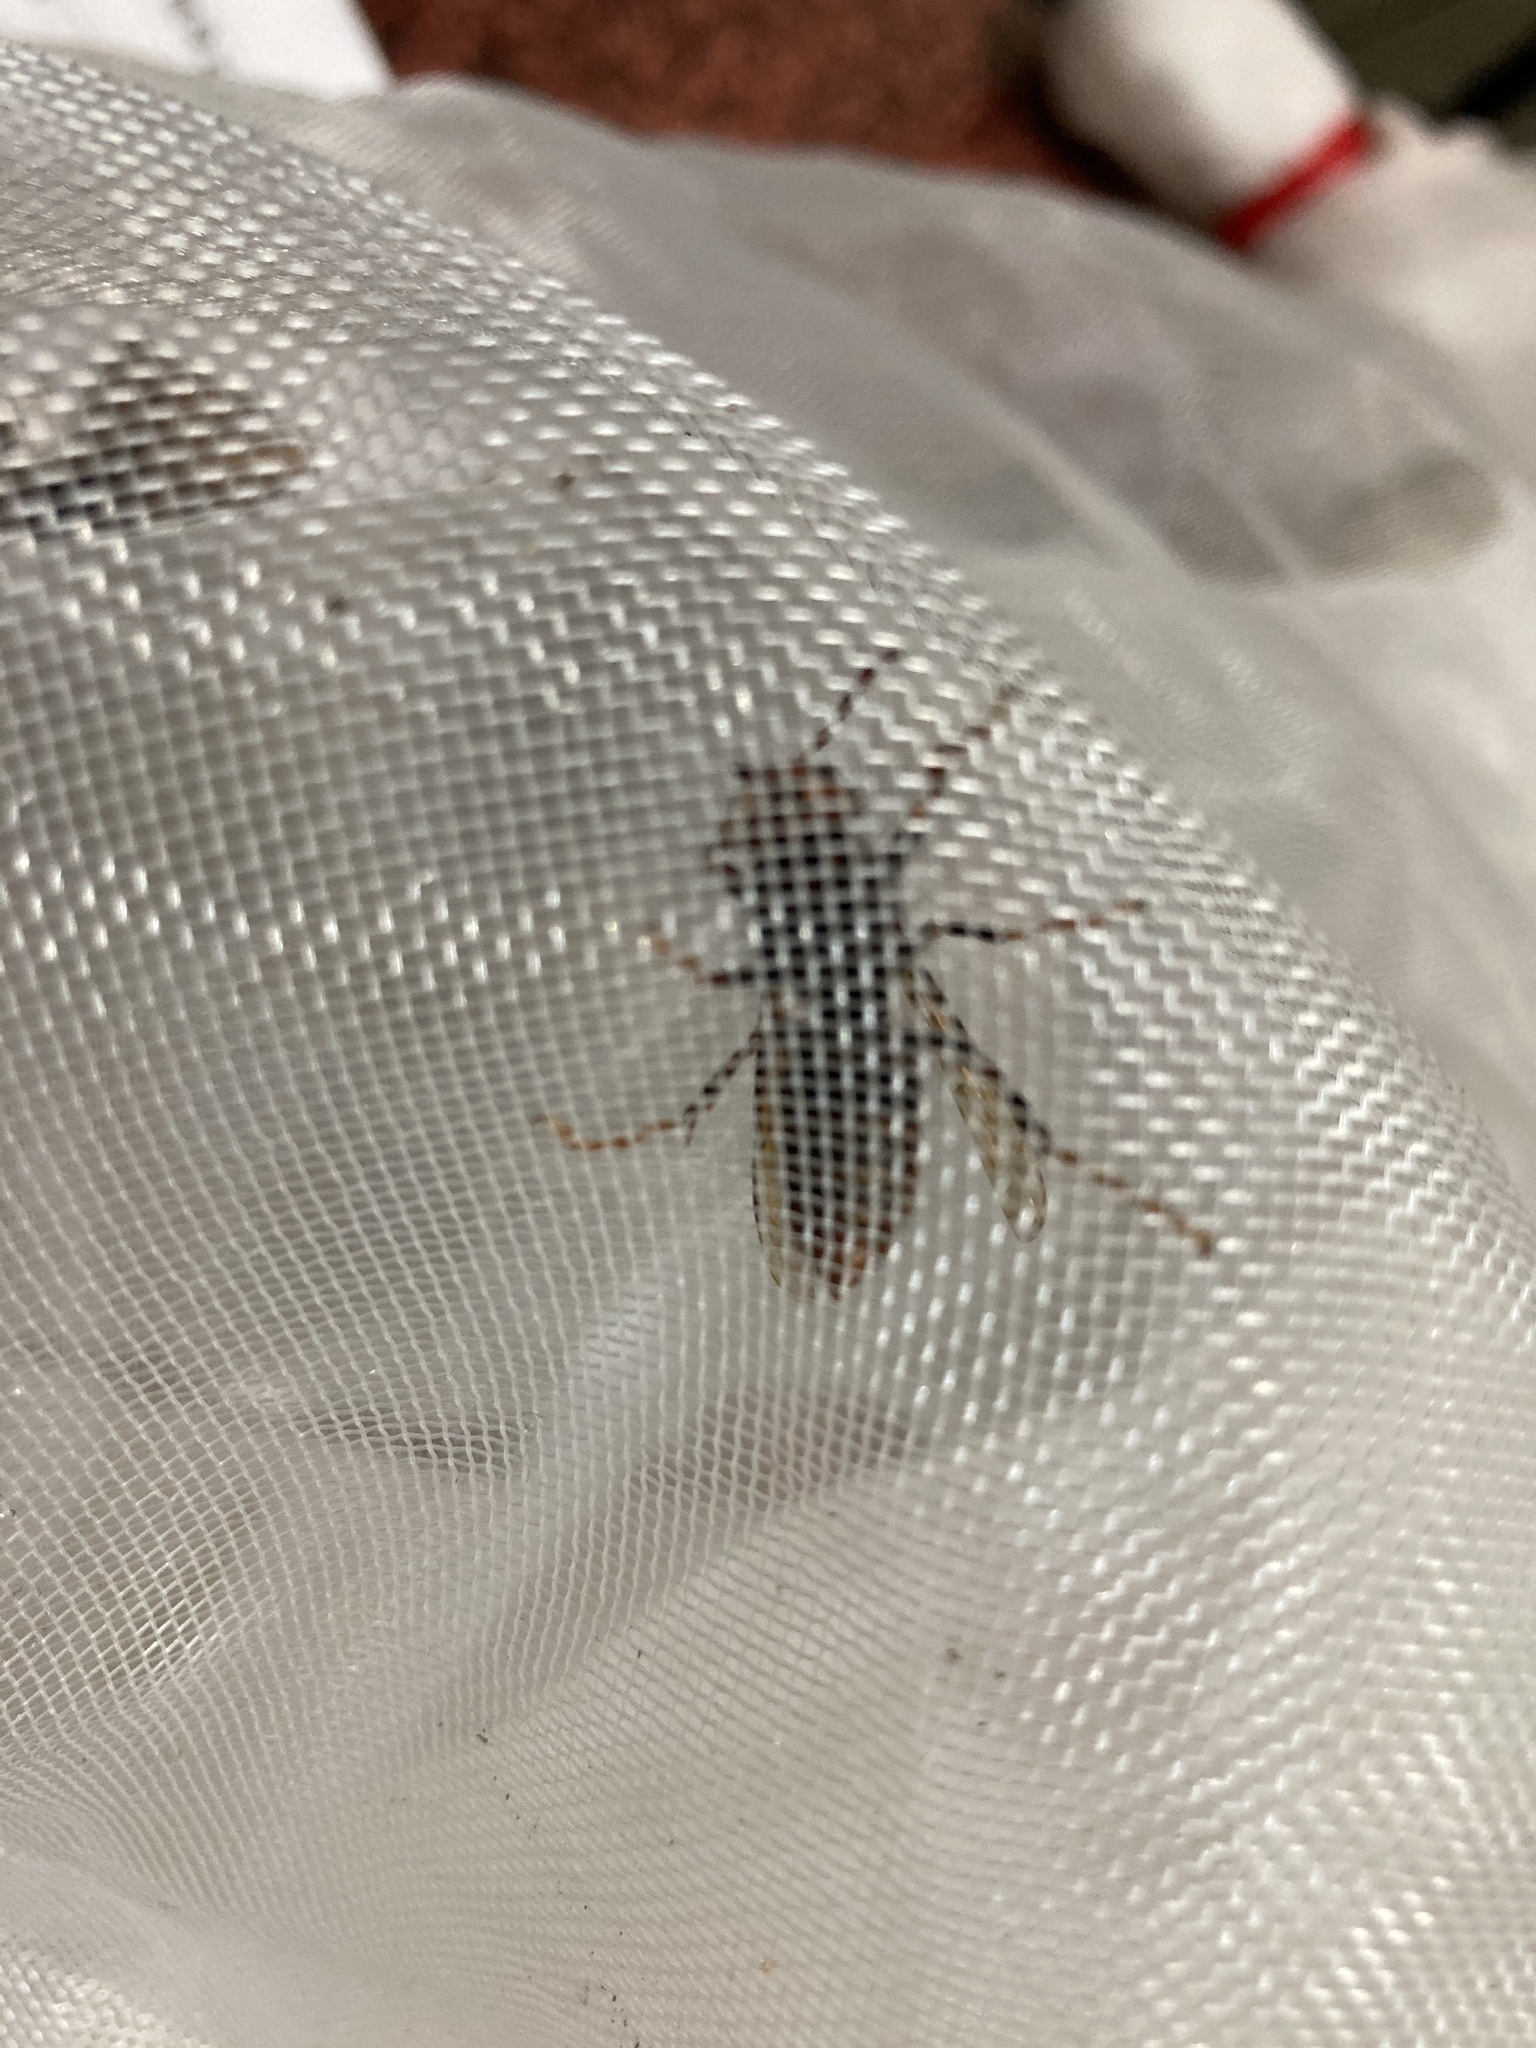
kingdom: Animalia
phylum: Arthropoda
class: Insecta
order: Hymenoptera
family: Vespidae
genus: Vespa
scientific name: Vespa velutina
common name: Asian hornet
